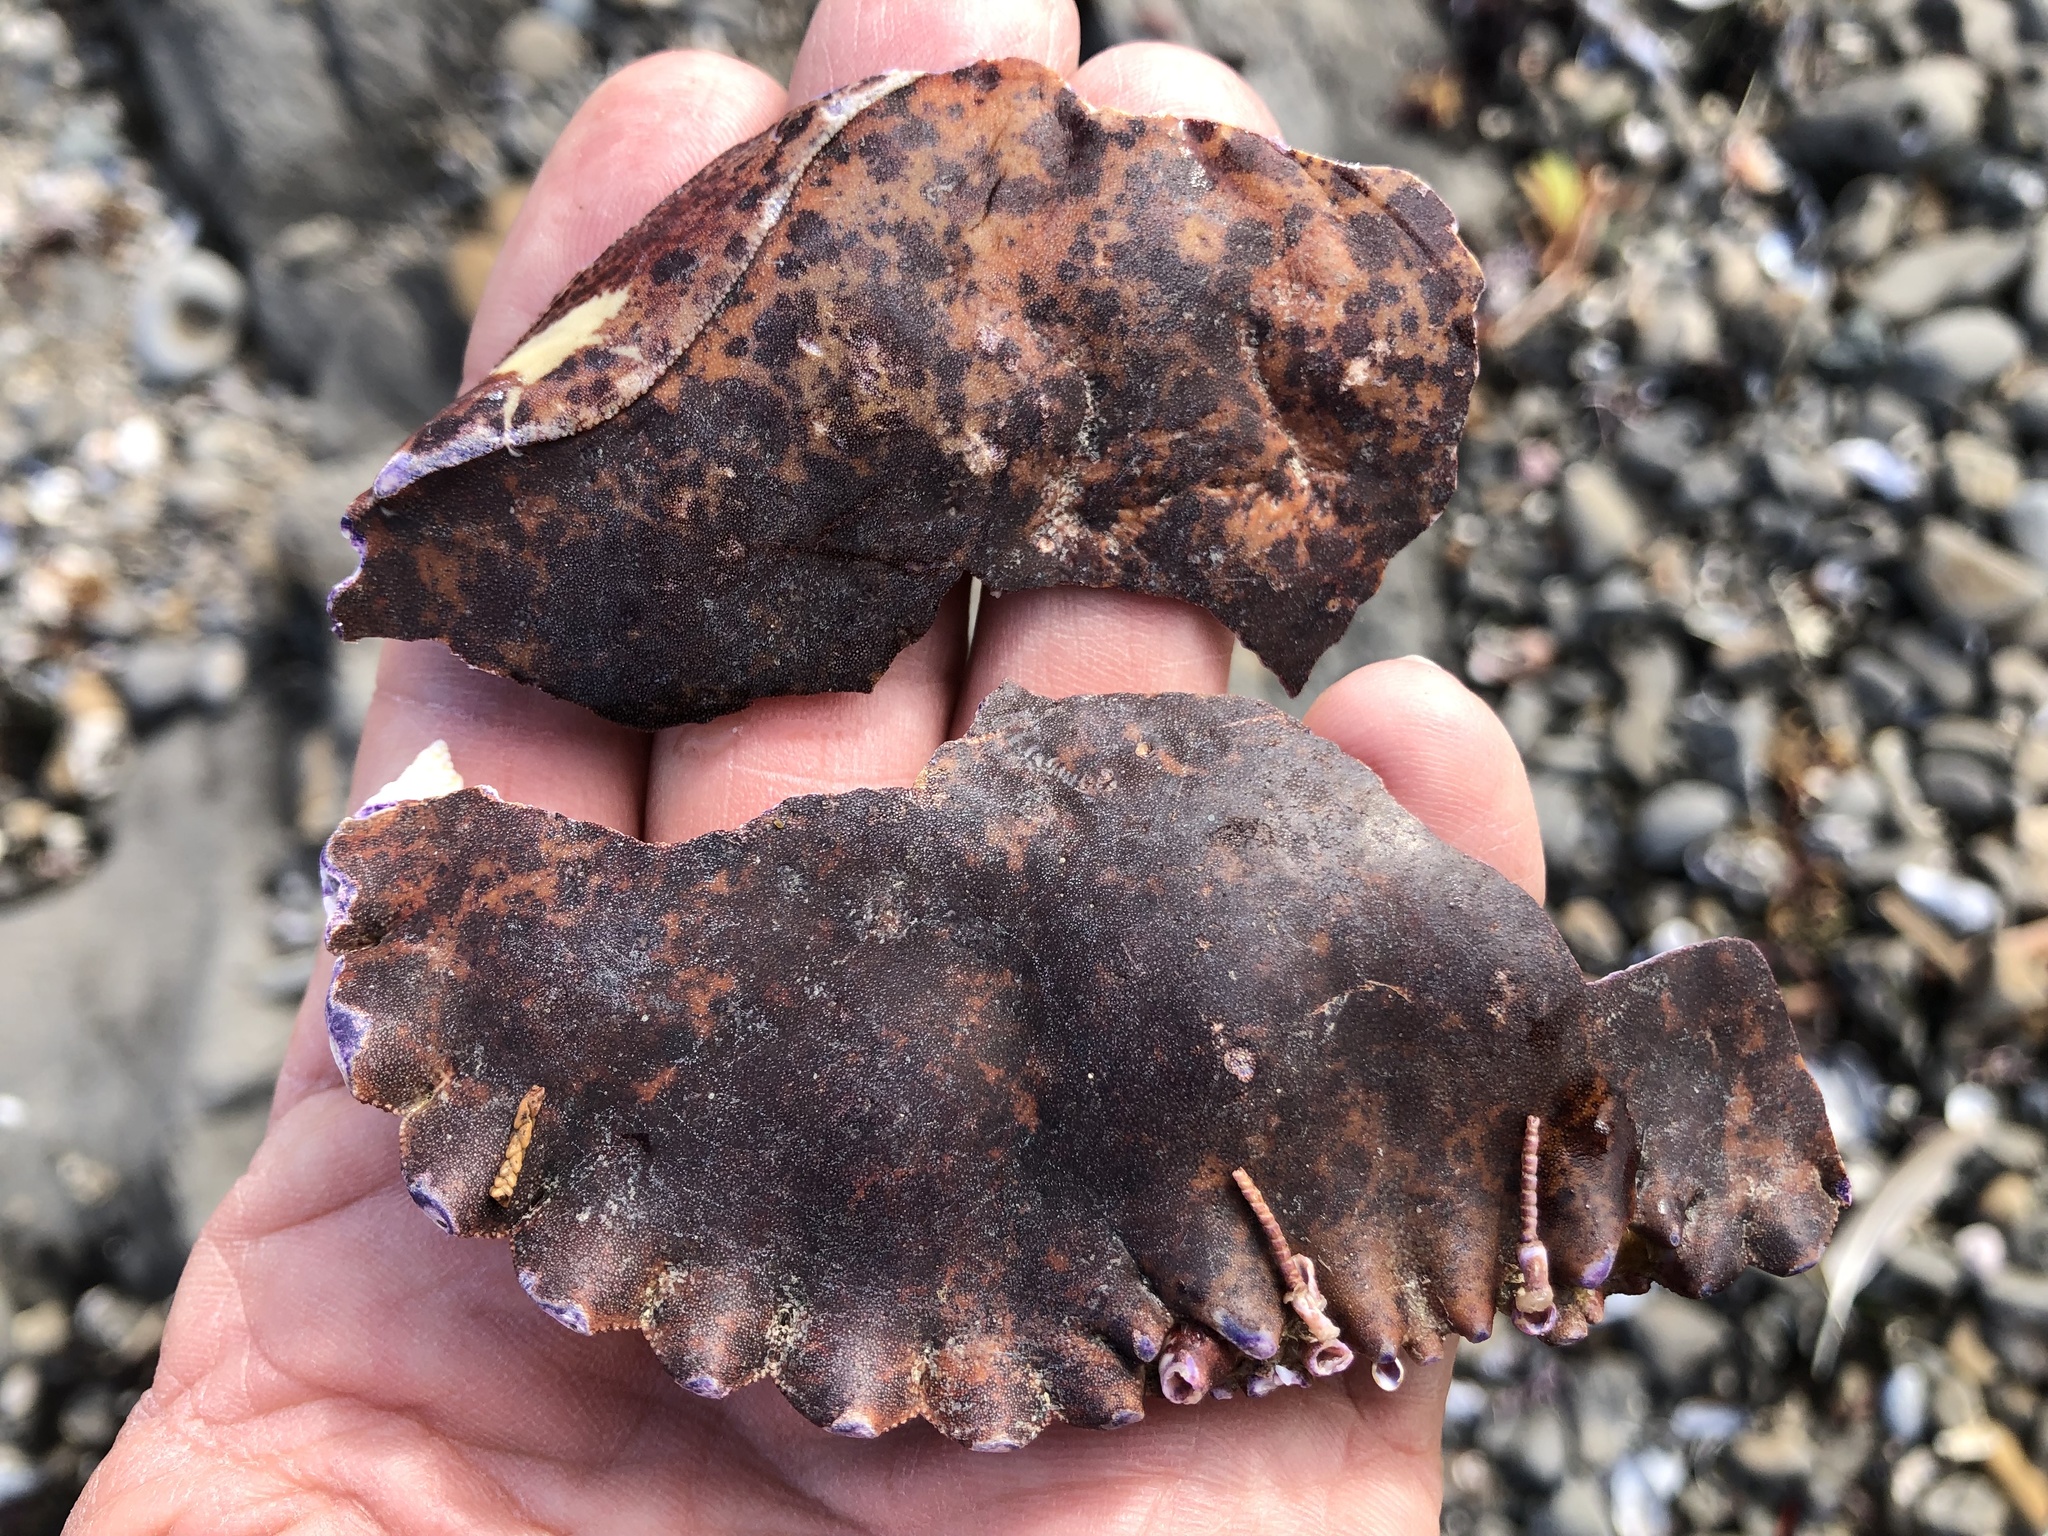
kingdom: Animalia
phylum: Arthropoda
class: Malacostraca
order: Decapoda
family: Cancridae
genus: Romaleon
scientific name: Romaleon antennarium
